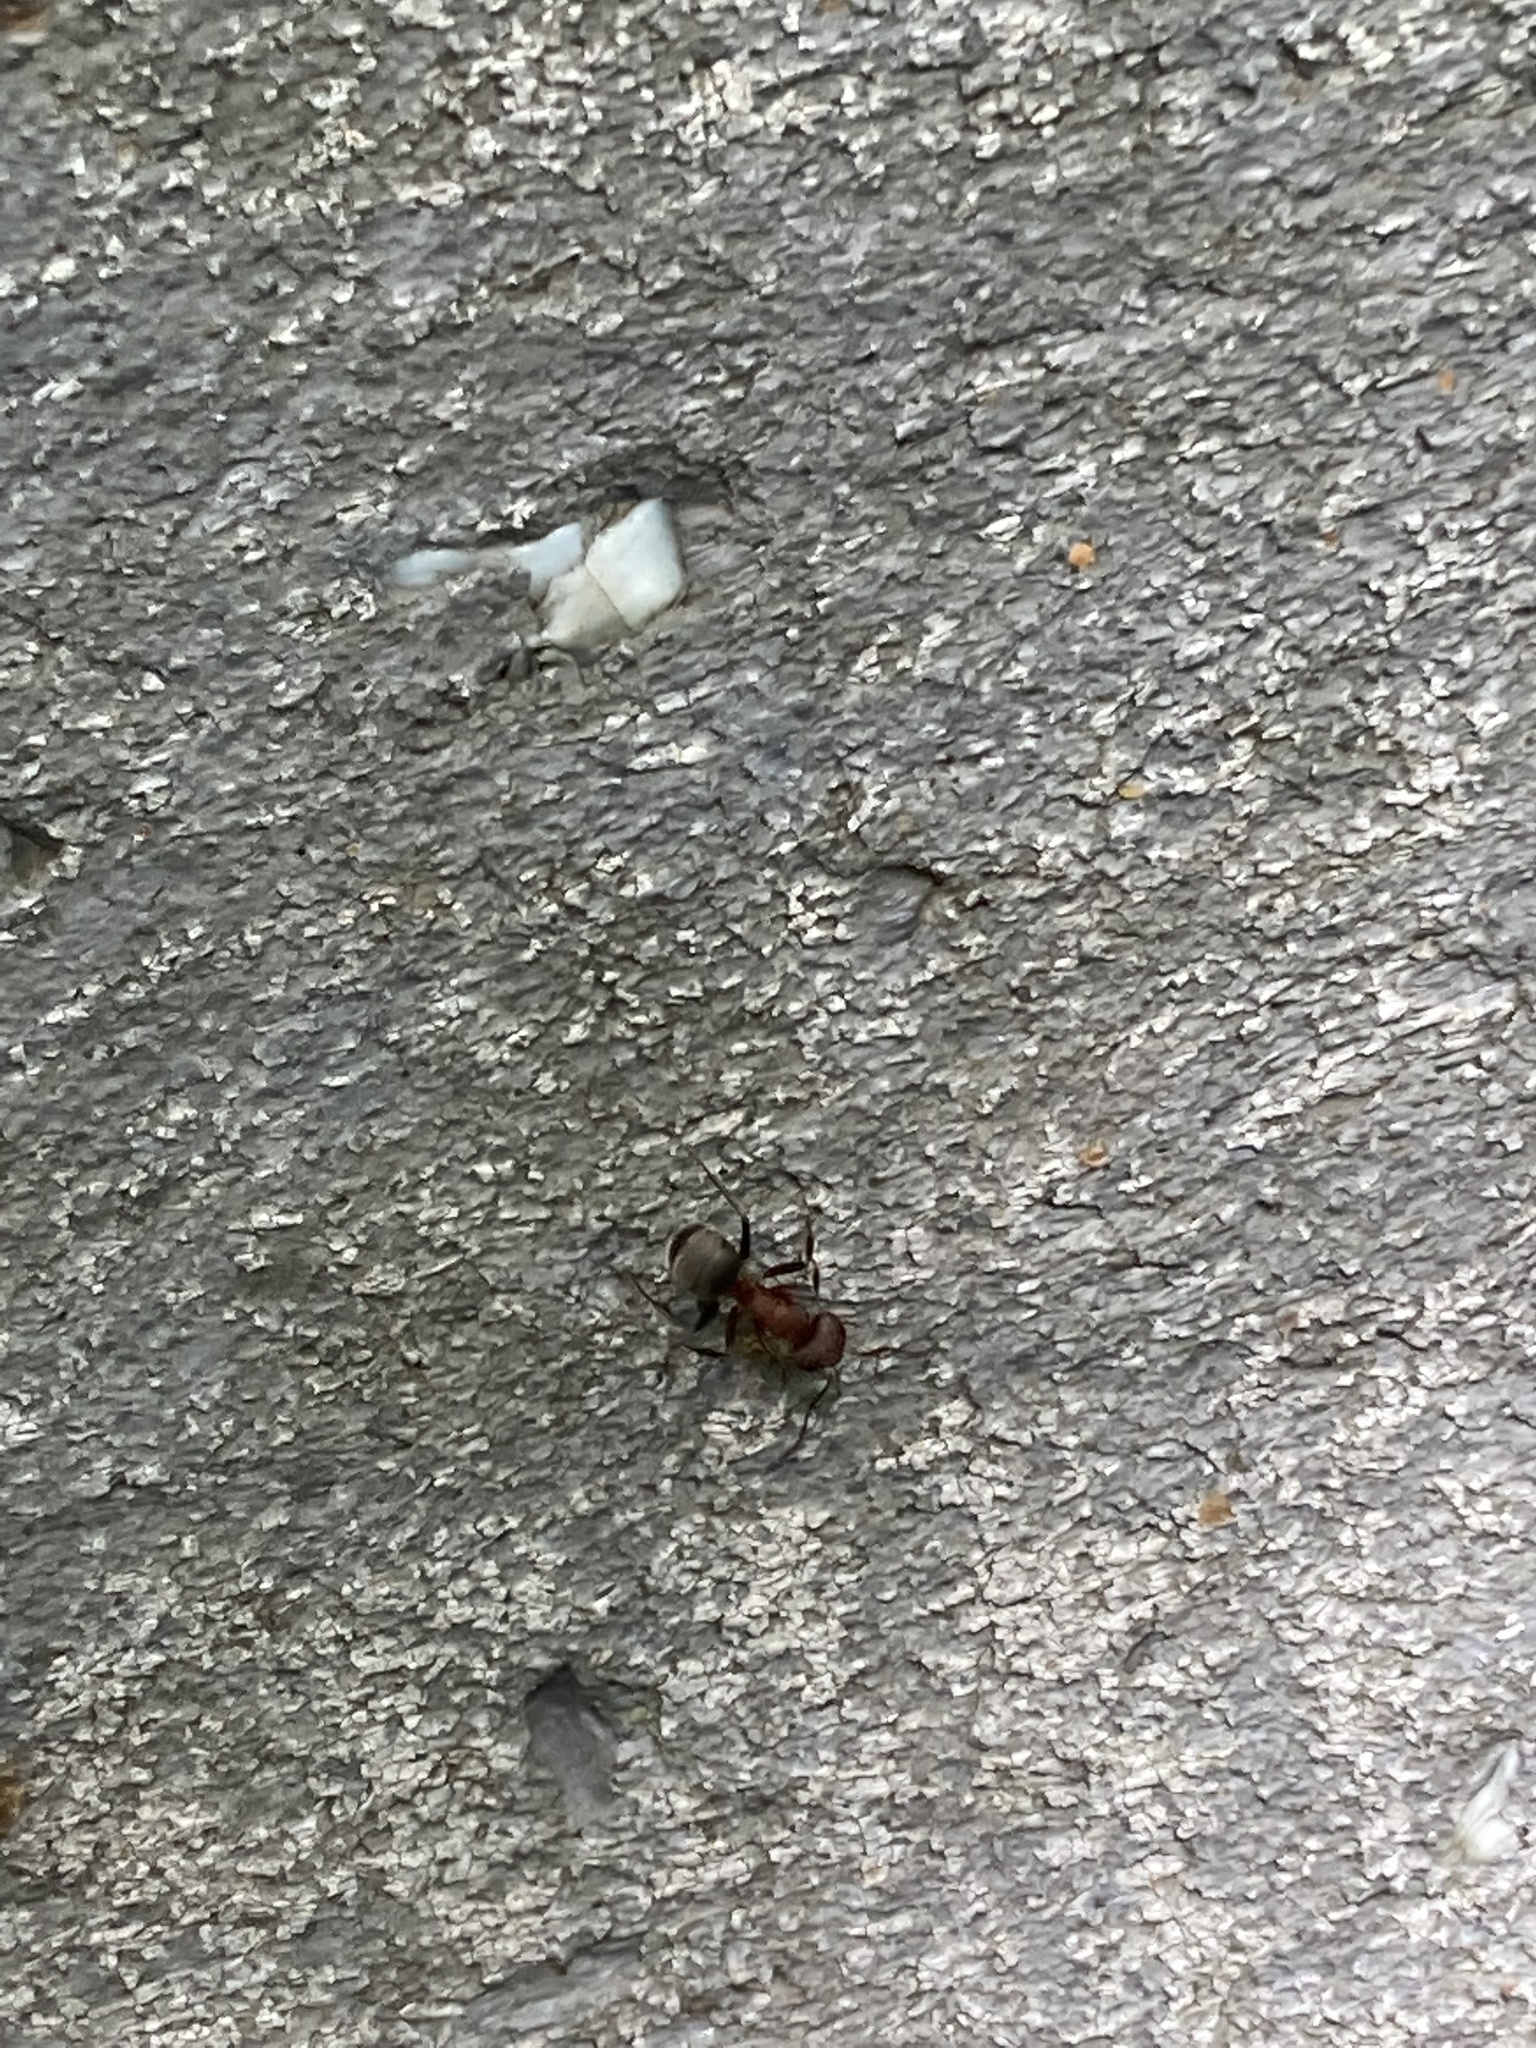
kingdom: Animalia
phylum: Arthropoda
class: Insecta
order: Hymenoptera
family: Formicidae
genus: Camponotus
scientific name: Camponotus planatus
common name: Compact carpenter ant
